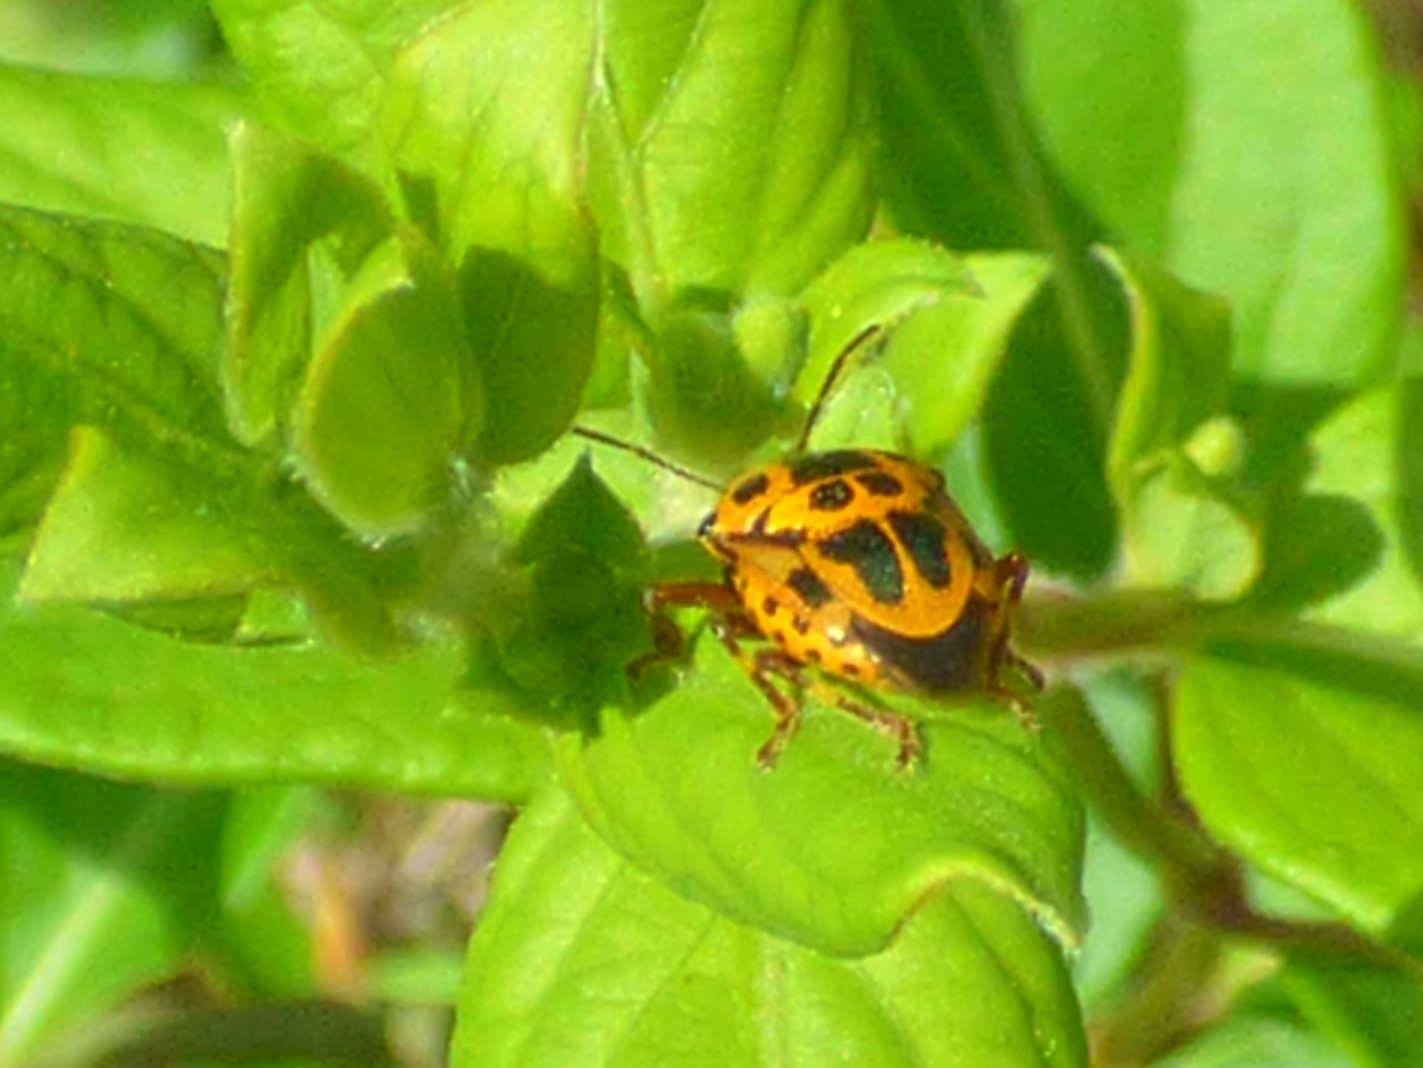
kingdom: Animalia
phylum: Arthropoda
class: Insecta
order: Hemiptera
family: Pentatomidae
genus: Stiretrus
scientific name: Stiretrus anchorago
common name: Anchor stink bug
